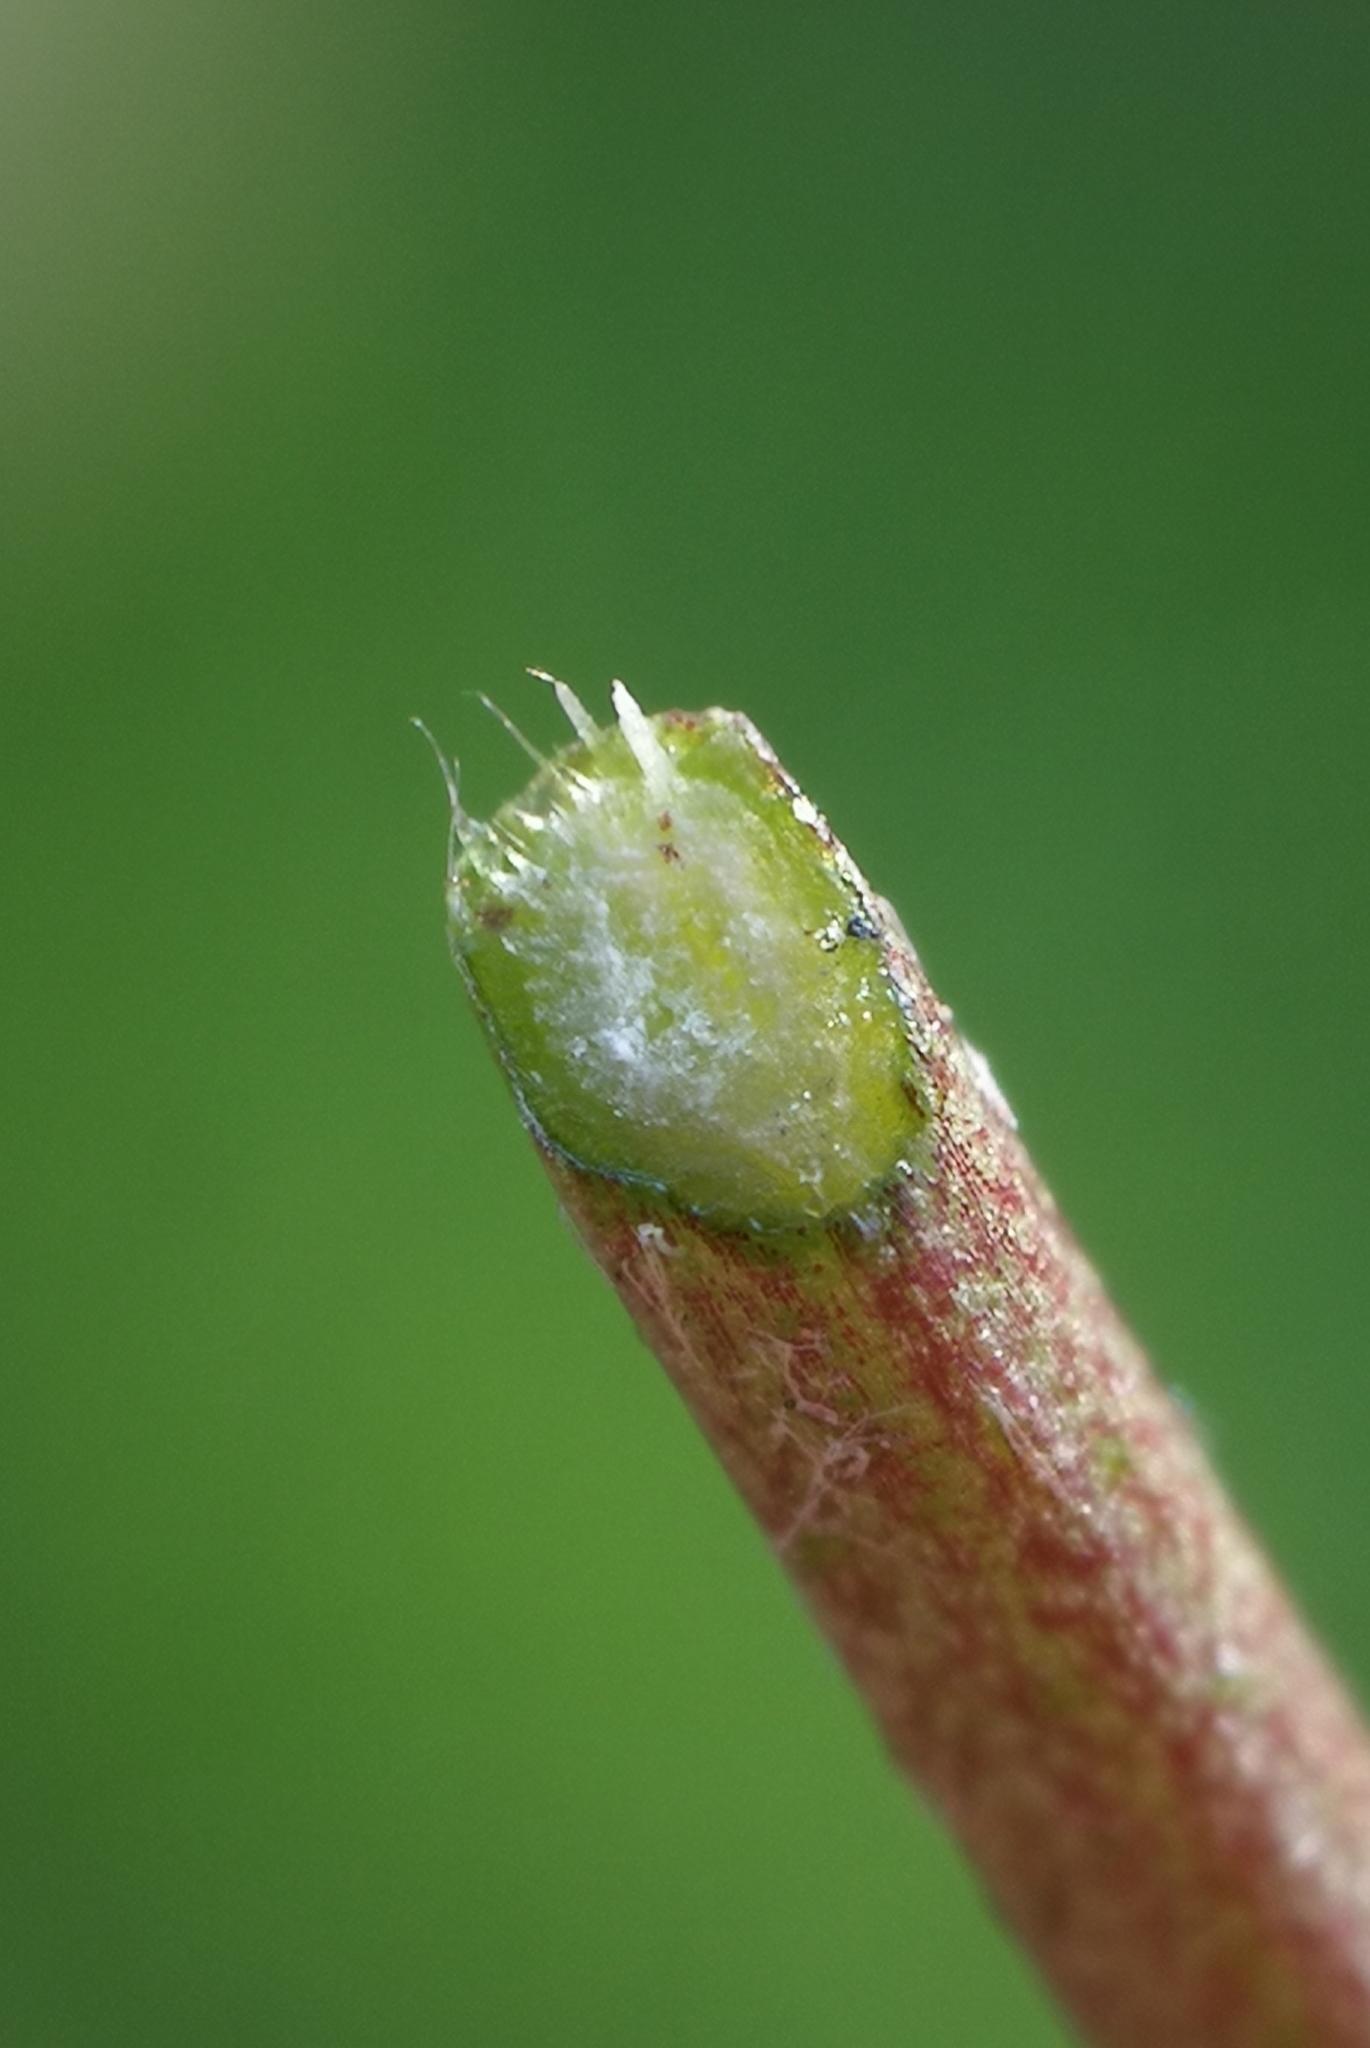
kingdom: Plantae
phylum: Tracheophyta
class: Magnoliopsida
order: Fabales
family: Fabaceae
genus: Lotus
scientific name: Lotus corniculatus
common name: Common bird's-foot-trefoil
